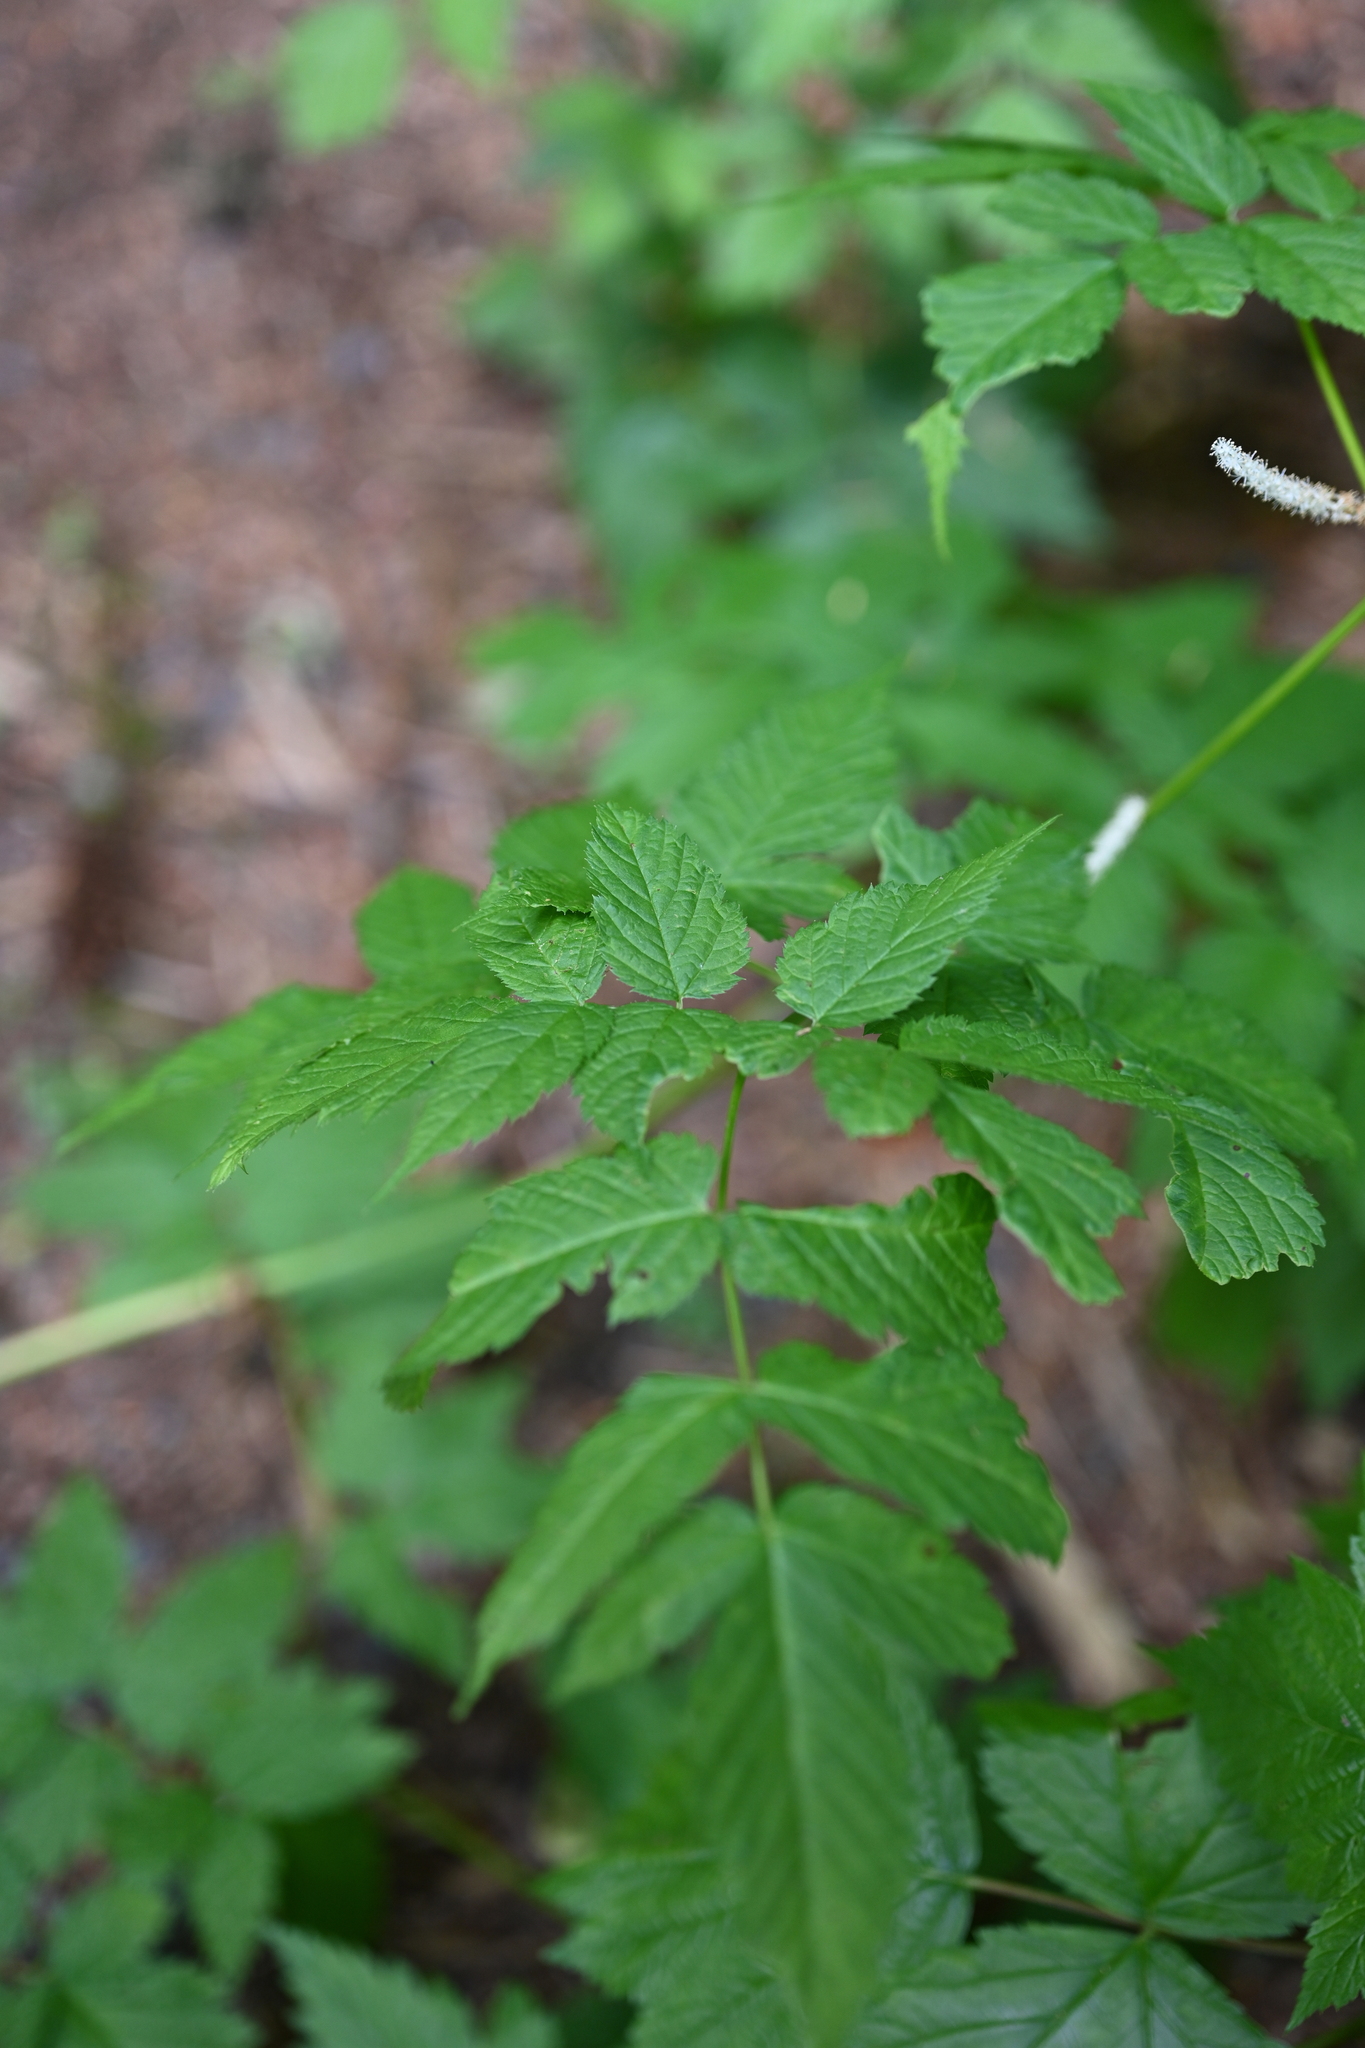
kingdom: Plantae
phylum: Tracheophyta
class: Magnoliopsida
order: Rosales
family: Rosaceae
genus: Aruncus
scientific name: Aruncus dioicus
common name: Buck's-beard
